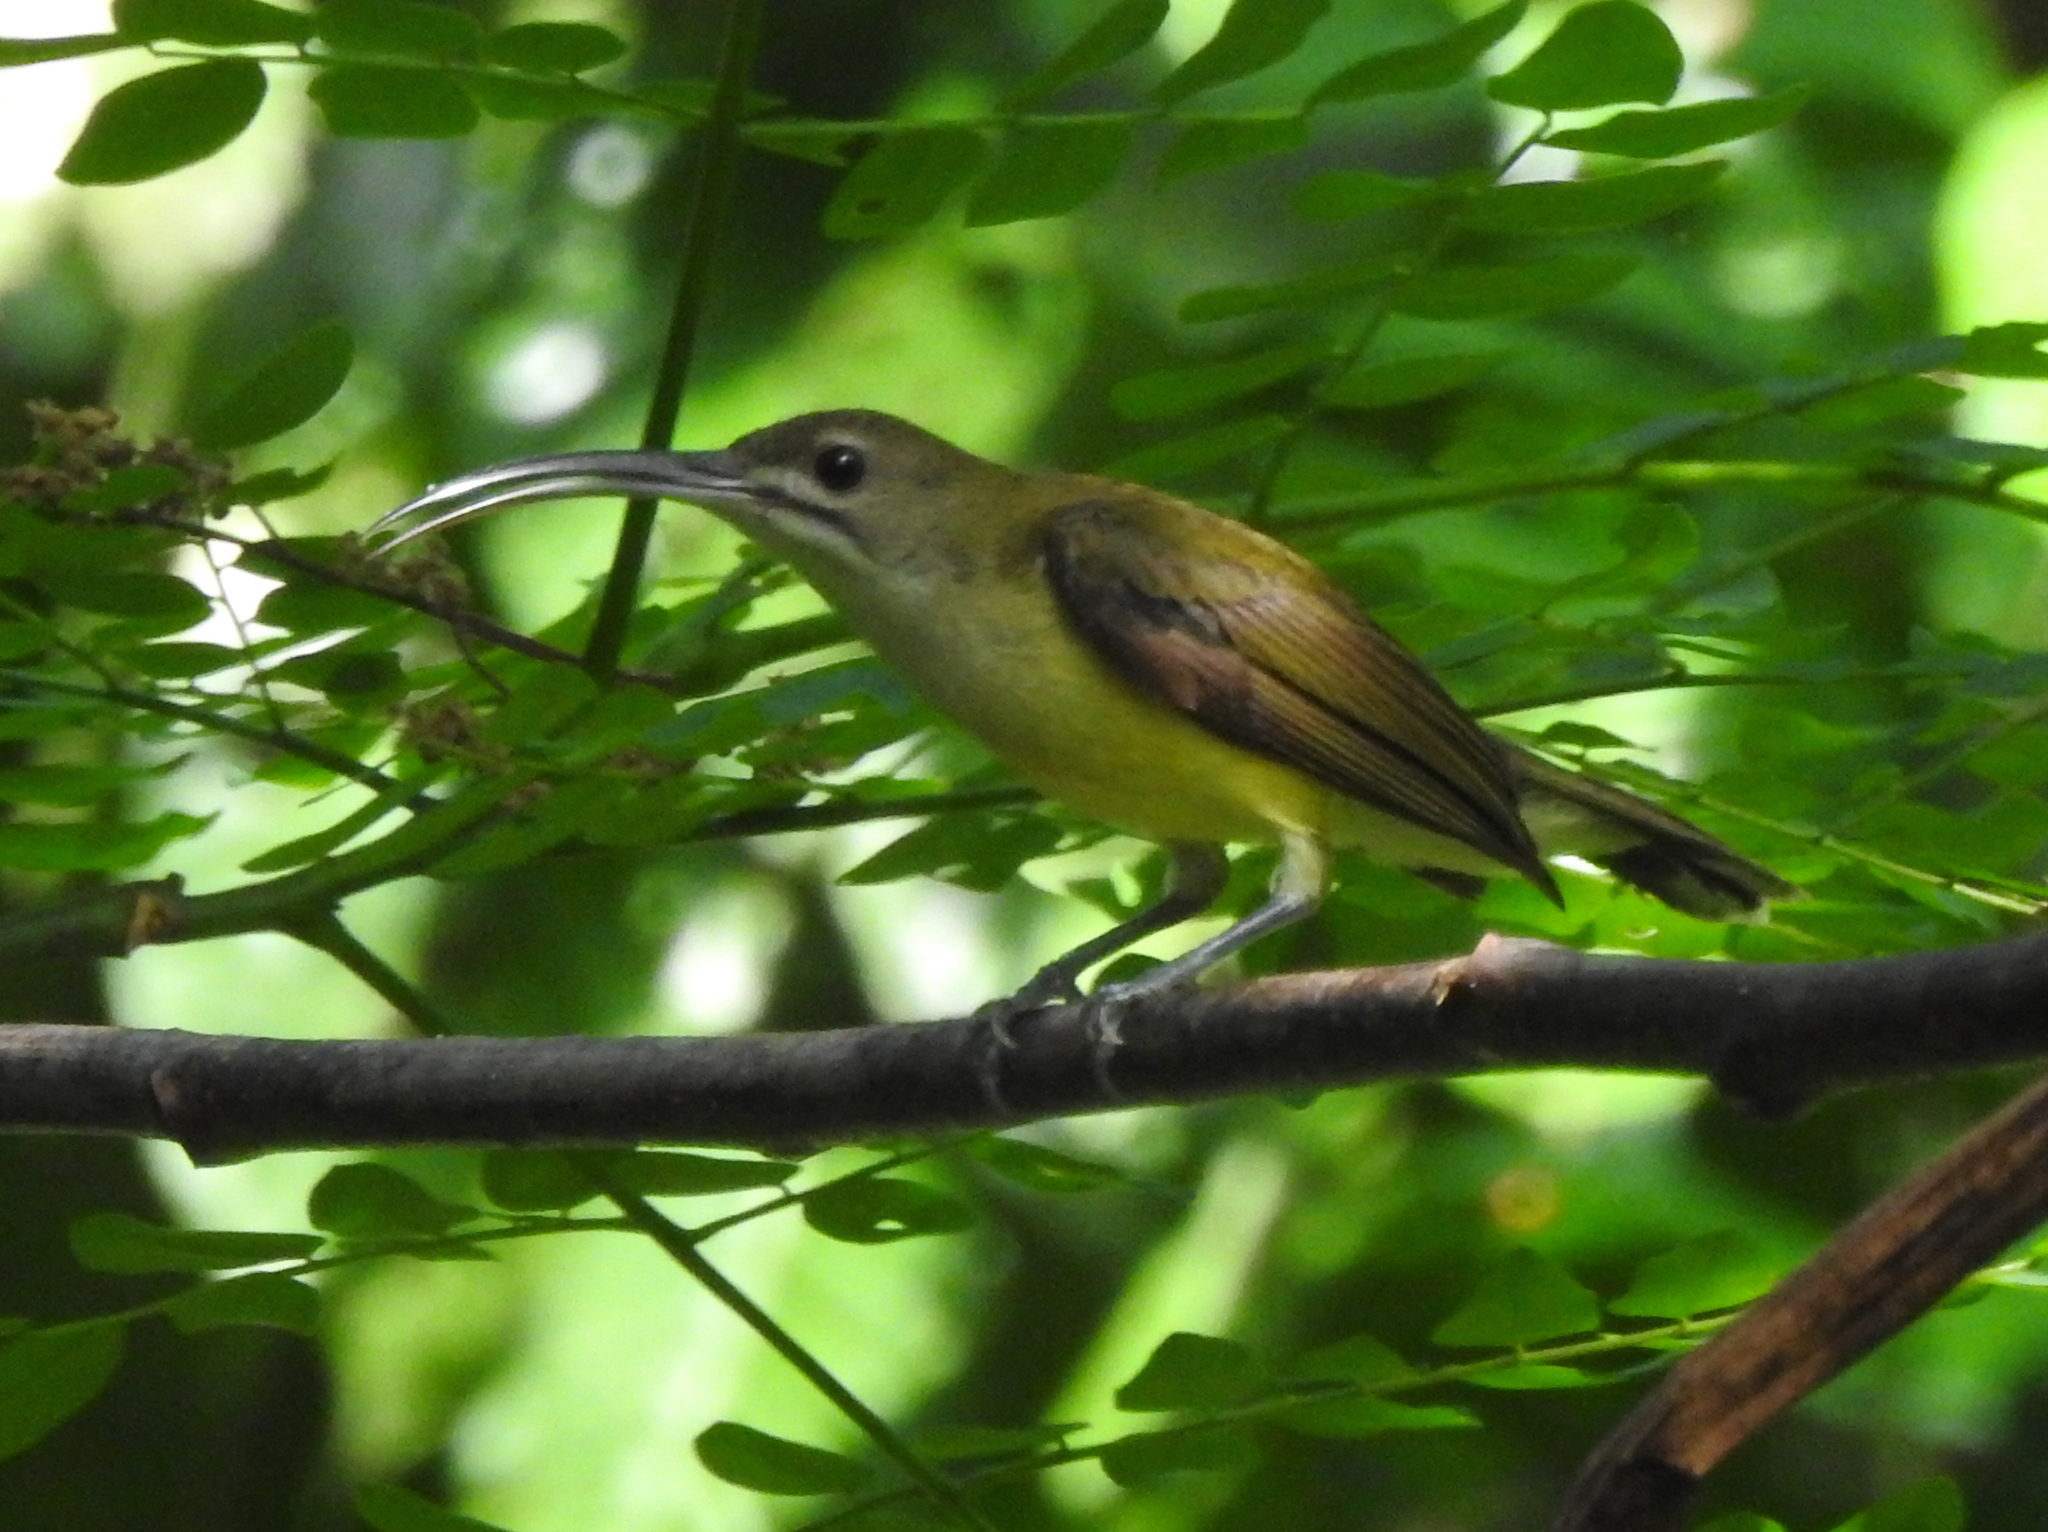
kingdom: Animalia
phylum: Chordata
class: Aves
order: Passeriformes
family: Nectariniidae
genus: Arachnothera
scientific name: Arachnothera longirostra
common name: Little spiderhunter
